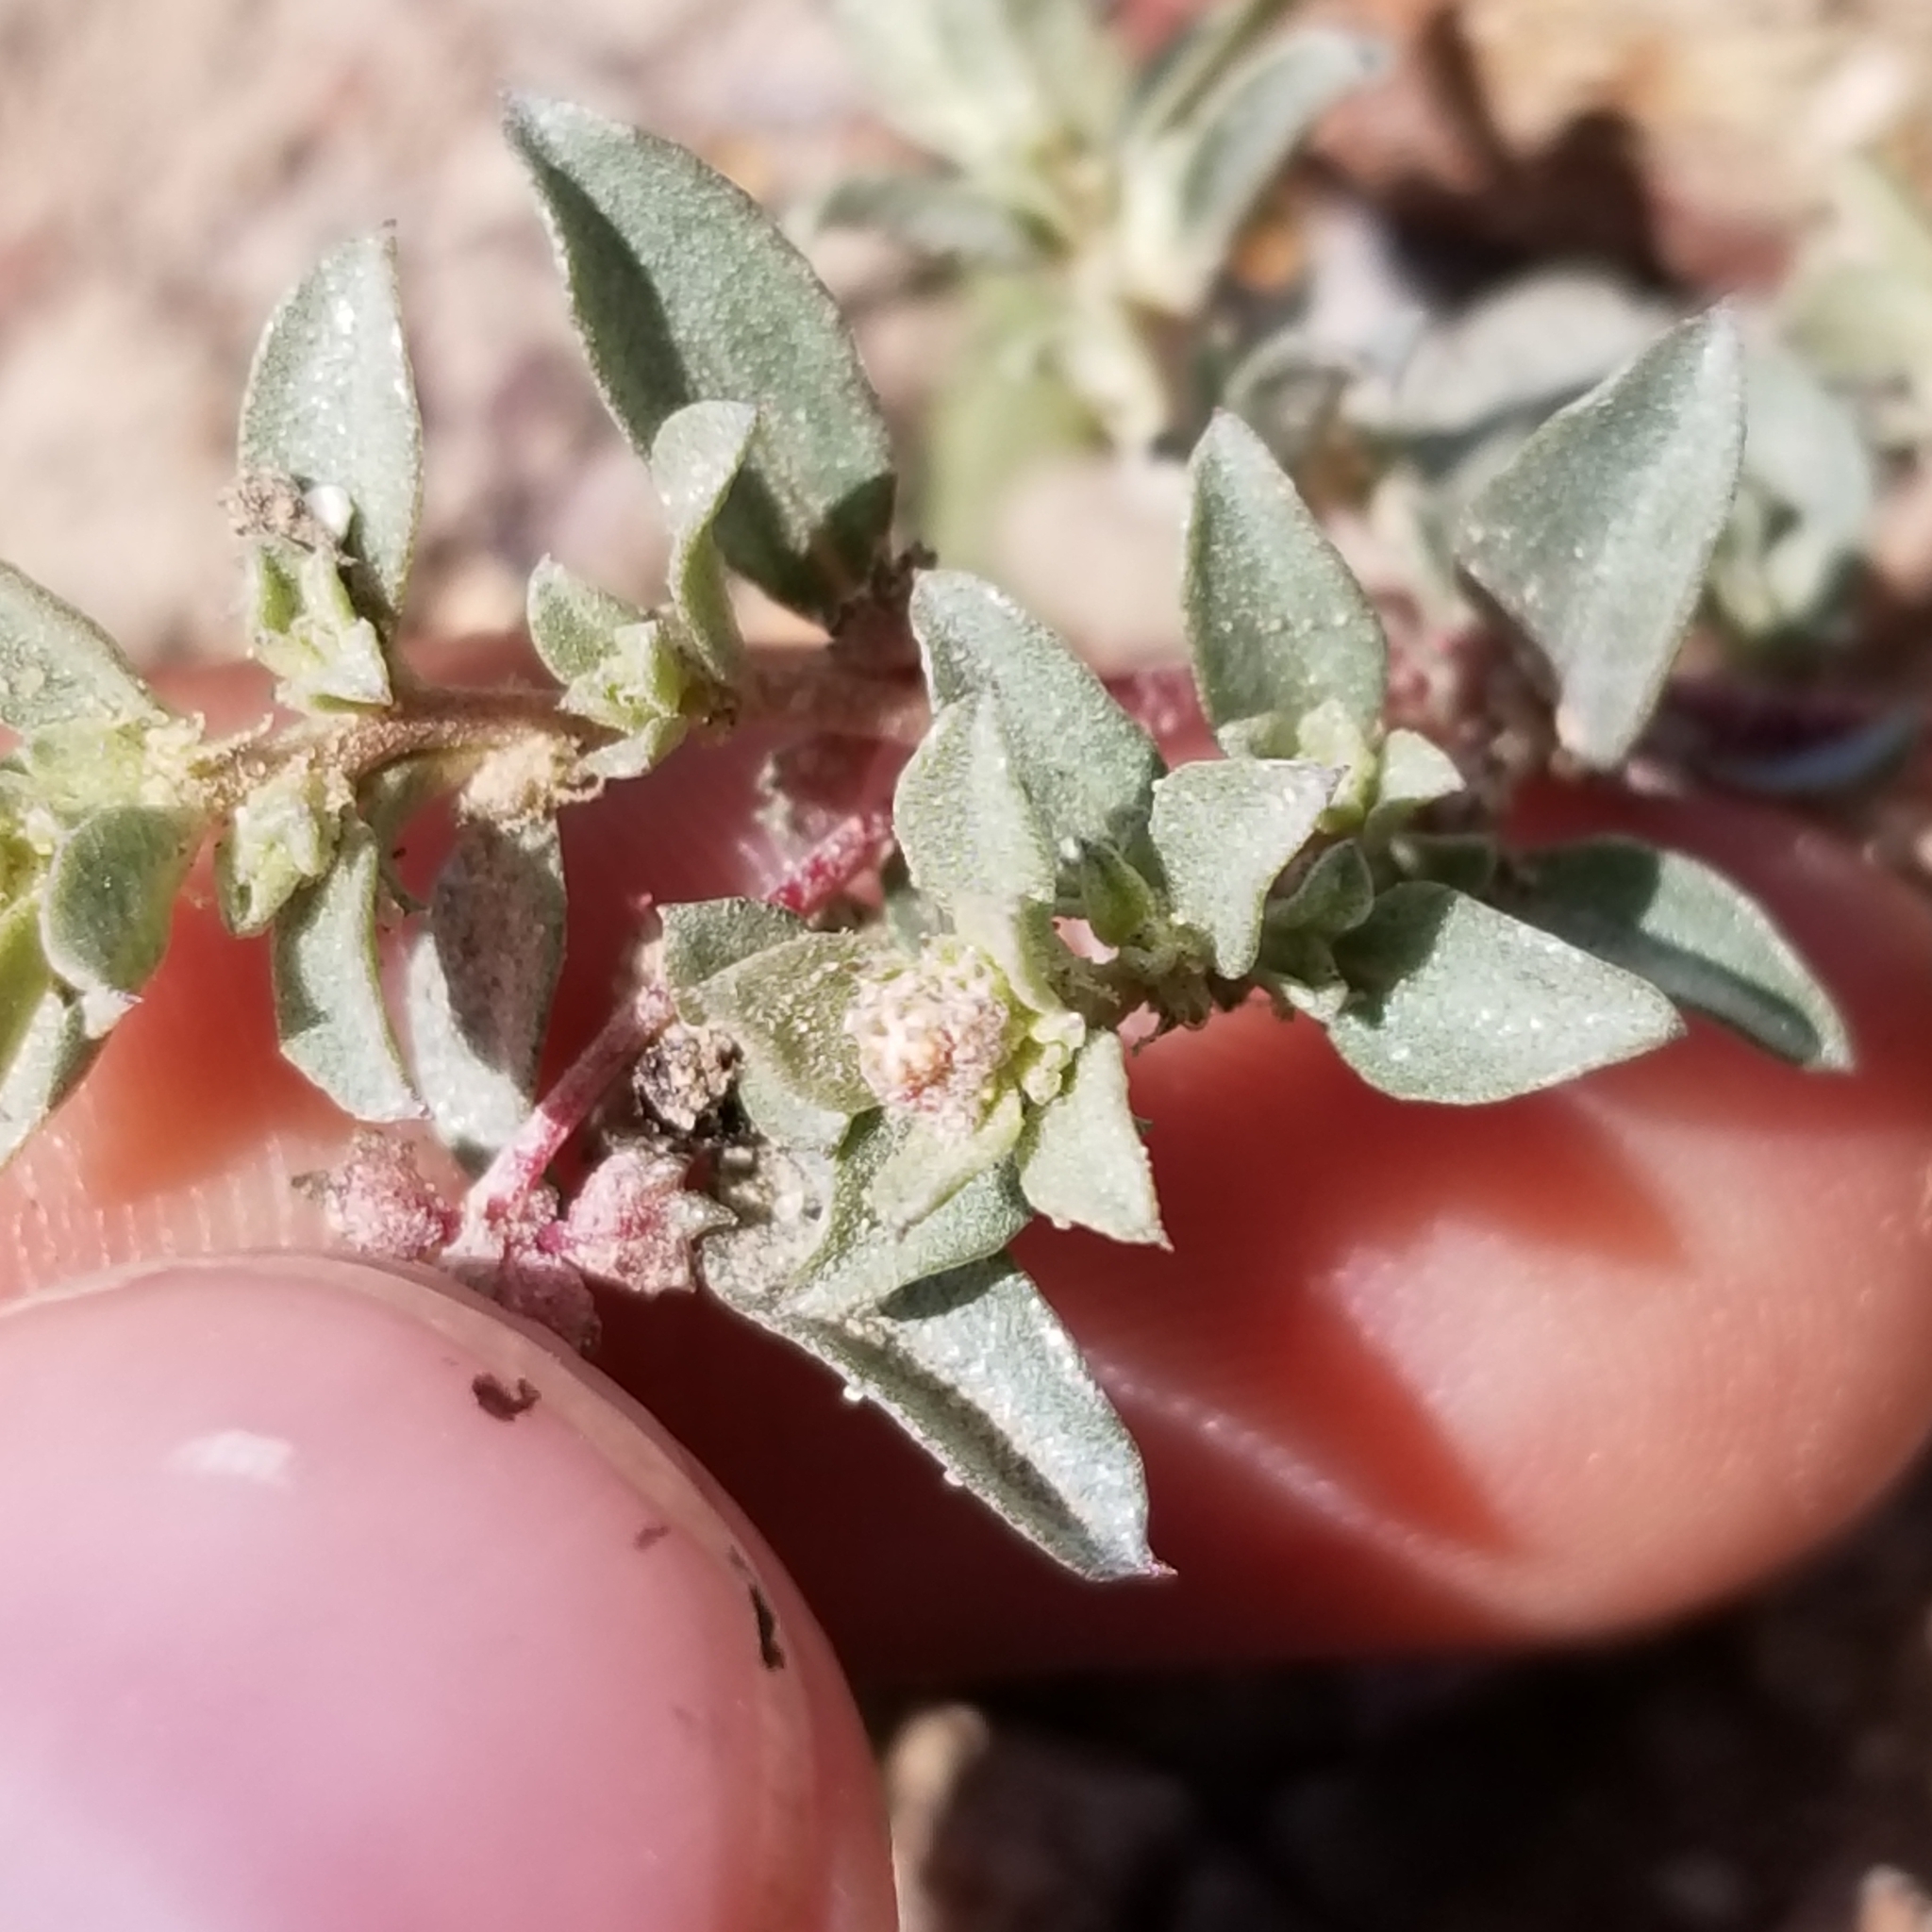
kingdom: Plantae
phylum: Tracheophyta
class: Magnoliopsida
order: Caryophyllales
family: Amaranthaceae
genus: Atriplex
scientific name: Atriplex semibaccata
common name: Australian saltbush
